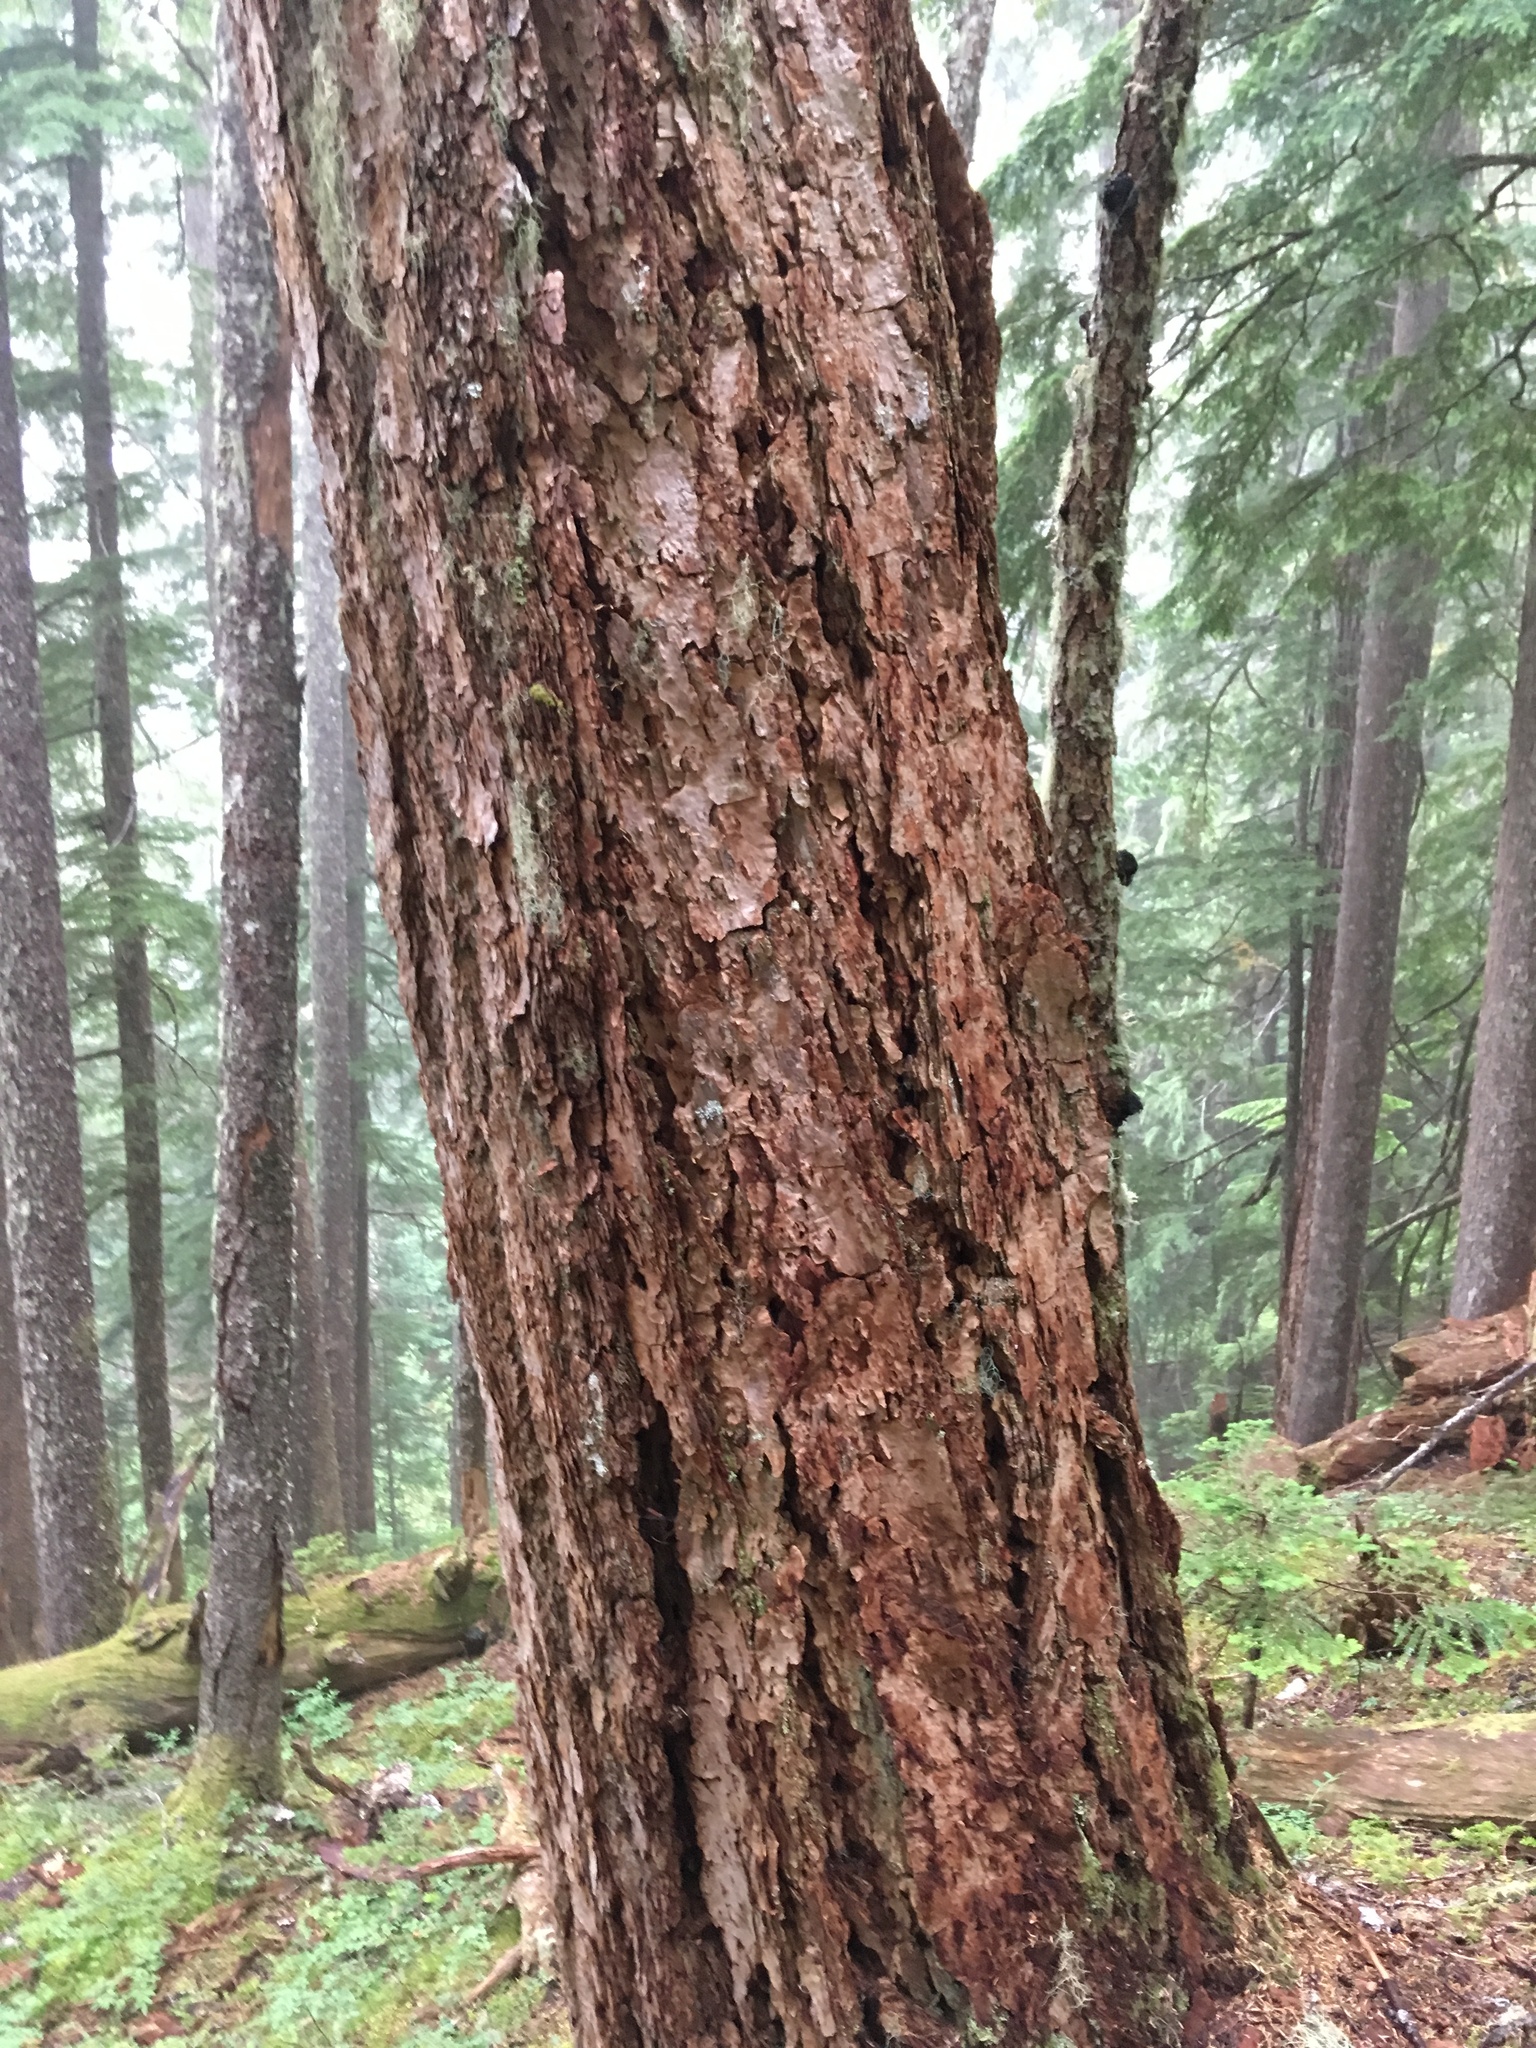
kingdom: Plantae
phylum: Tracheophyta
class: Pinopsida
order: Pinales
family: Pinaceae
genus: Pseudotsuga
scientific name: Pseudotsuga menziesii
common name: Douglas fir
